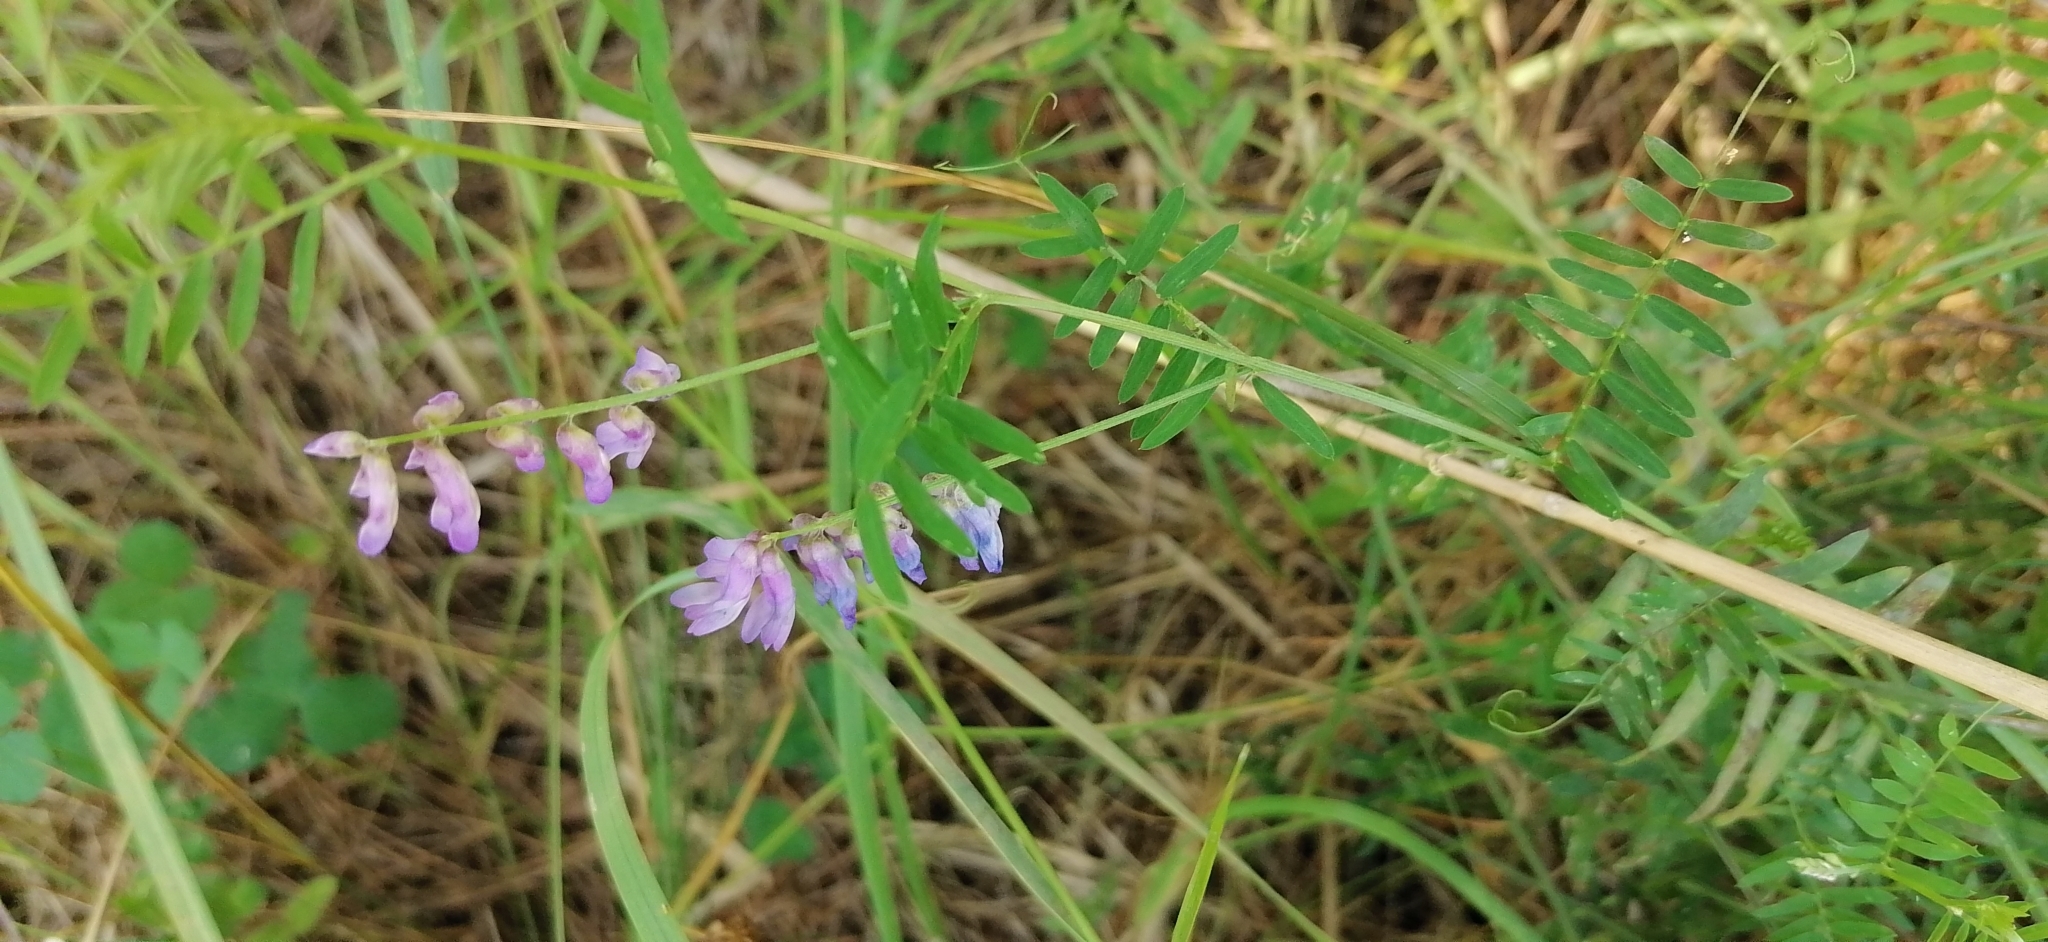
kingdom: Plantae
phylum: Tracheophyta
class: Magnoliopsida
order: Fabales
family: Fabaceae
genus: Vicia
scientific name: Vicia cracca
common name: Bird vetch
